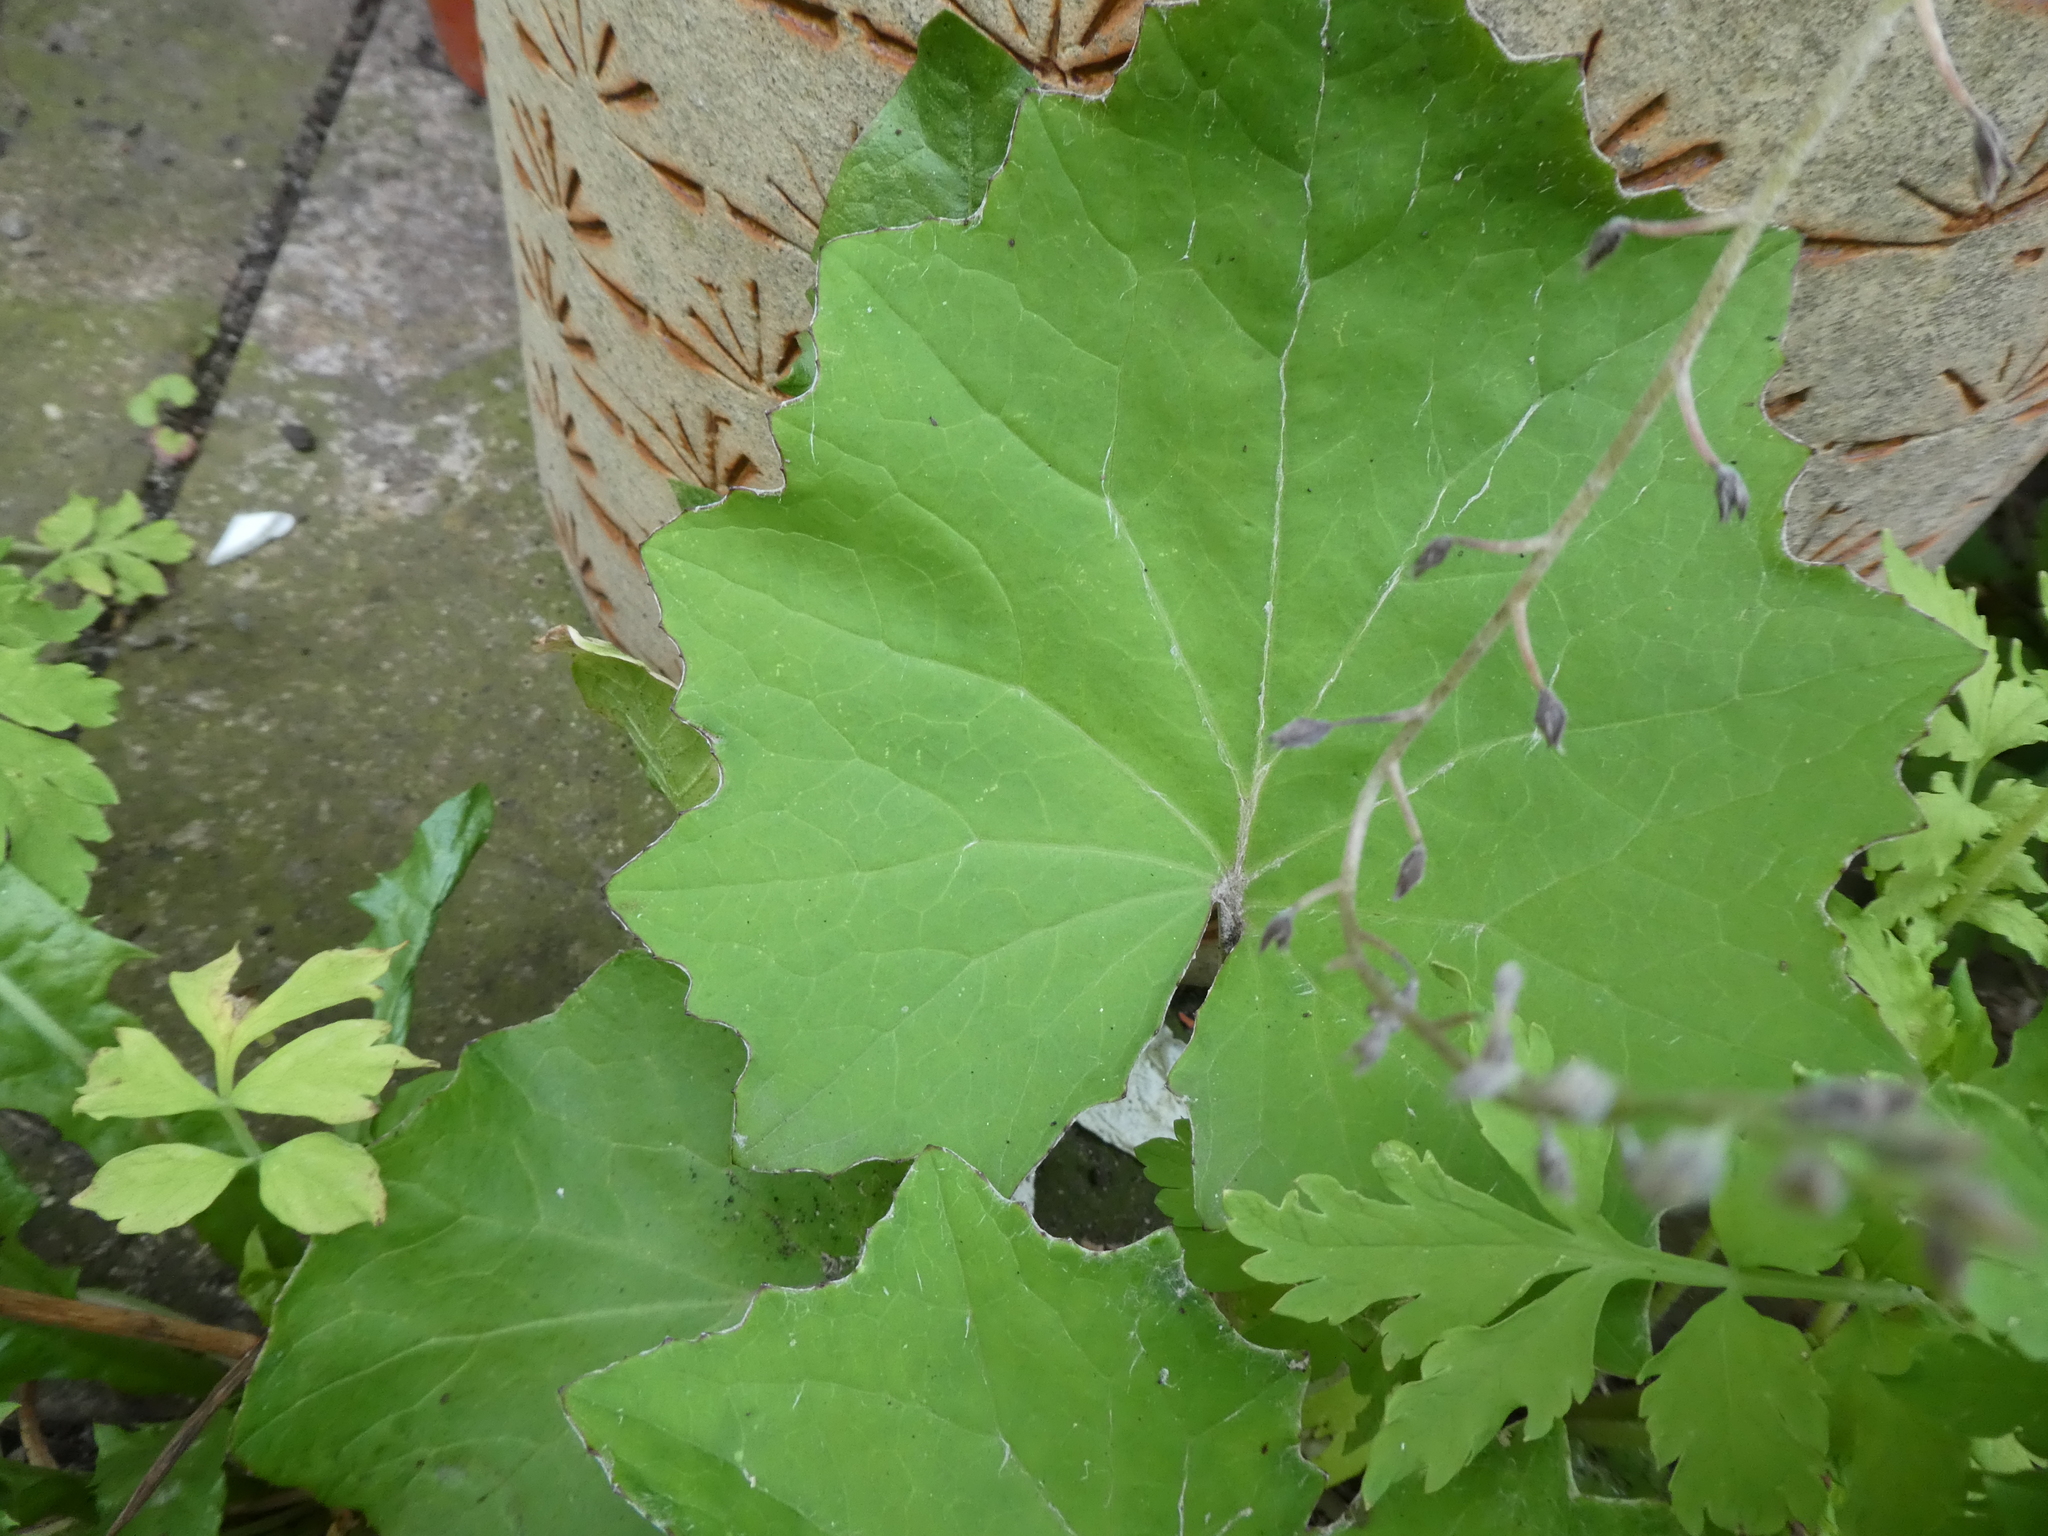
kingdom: Plantae
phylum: Tracheophyta
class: Magnoliopsida
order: Asterales
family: Asteraceae
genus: Tussilago
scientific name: Tussilago farfara
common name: Coltsfoot
